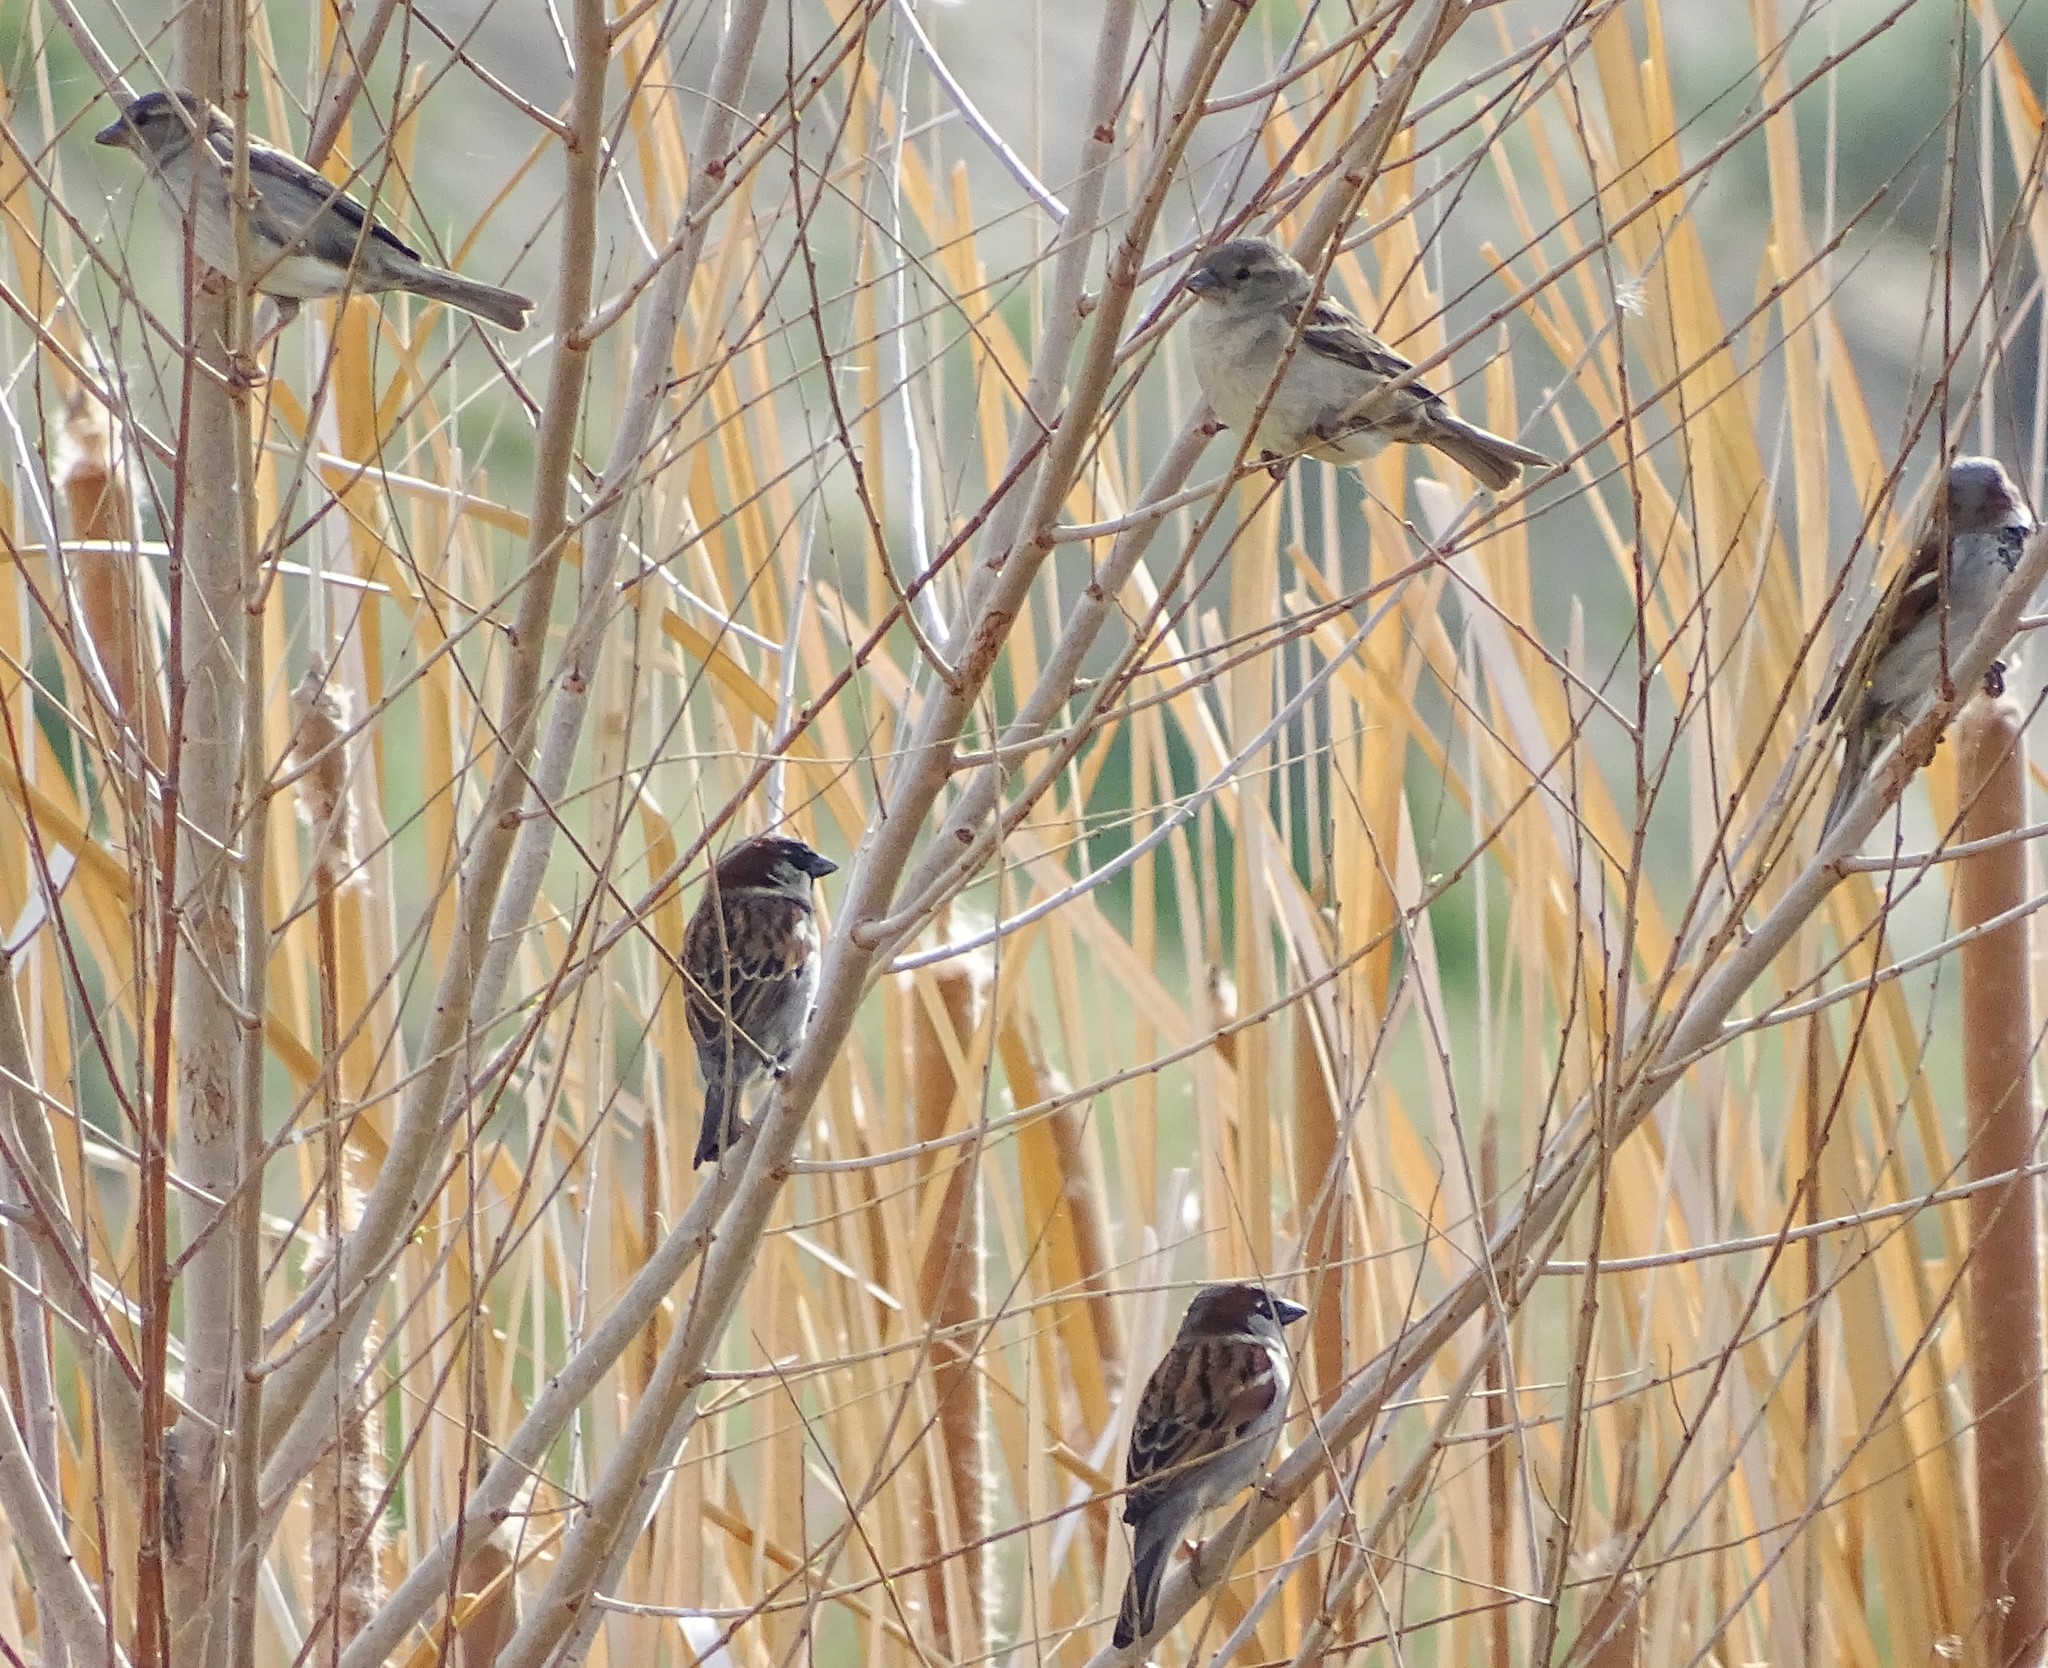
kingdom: Animalia
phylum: Chordata
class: Aves
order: Passeriformes
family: Passeridae
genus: Passer
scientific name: Passer domesticus
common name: House sparrow
